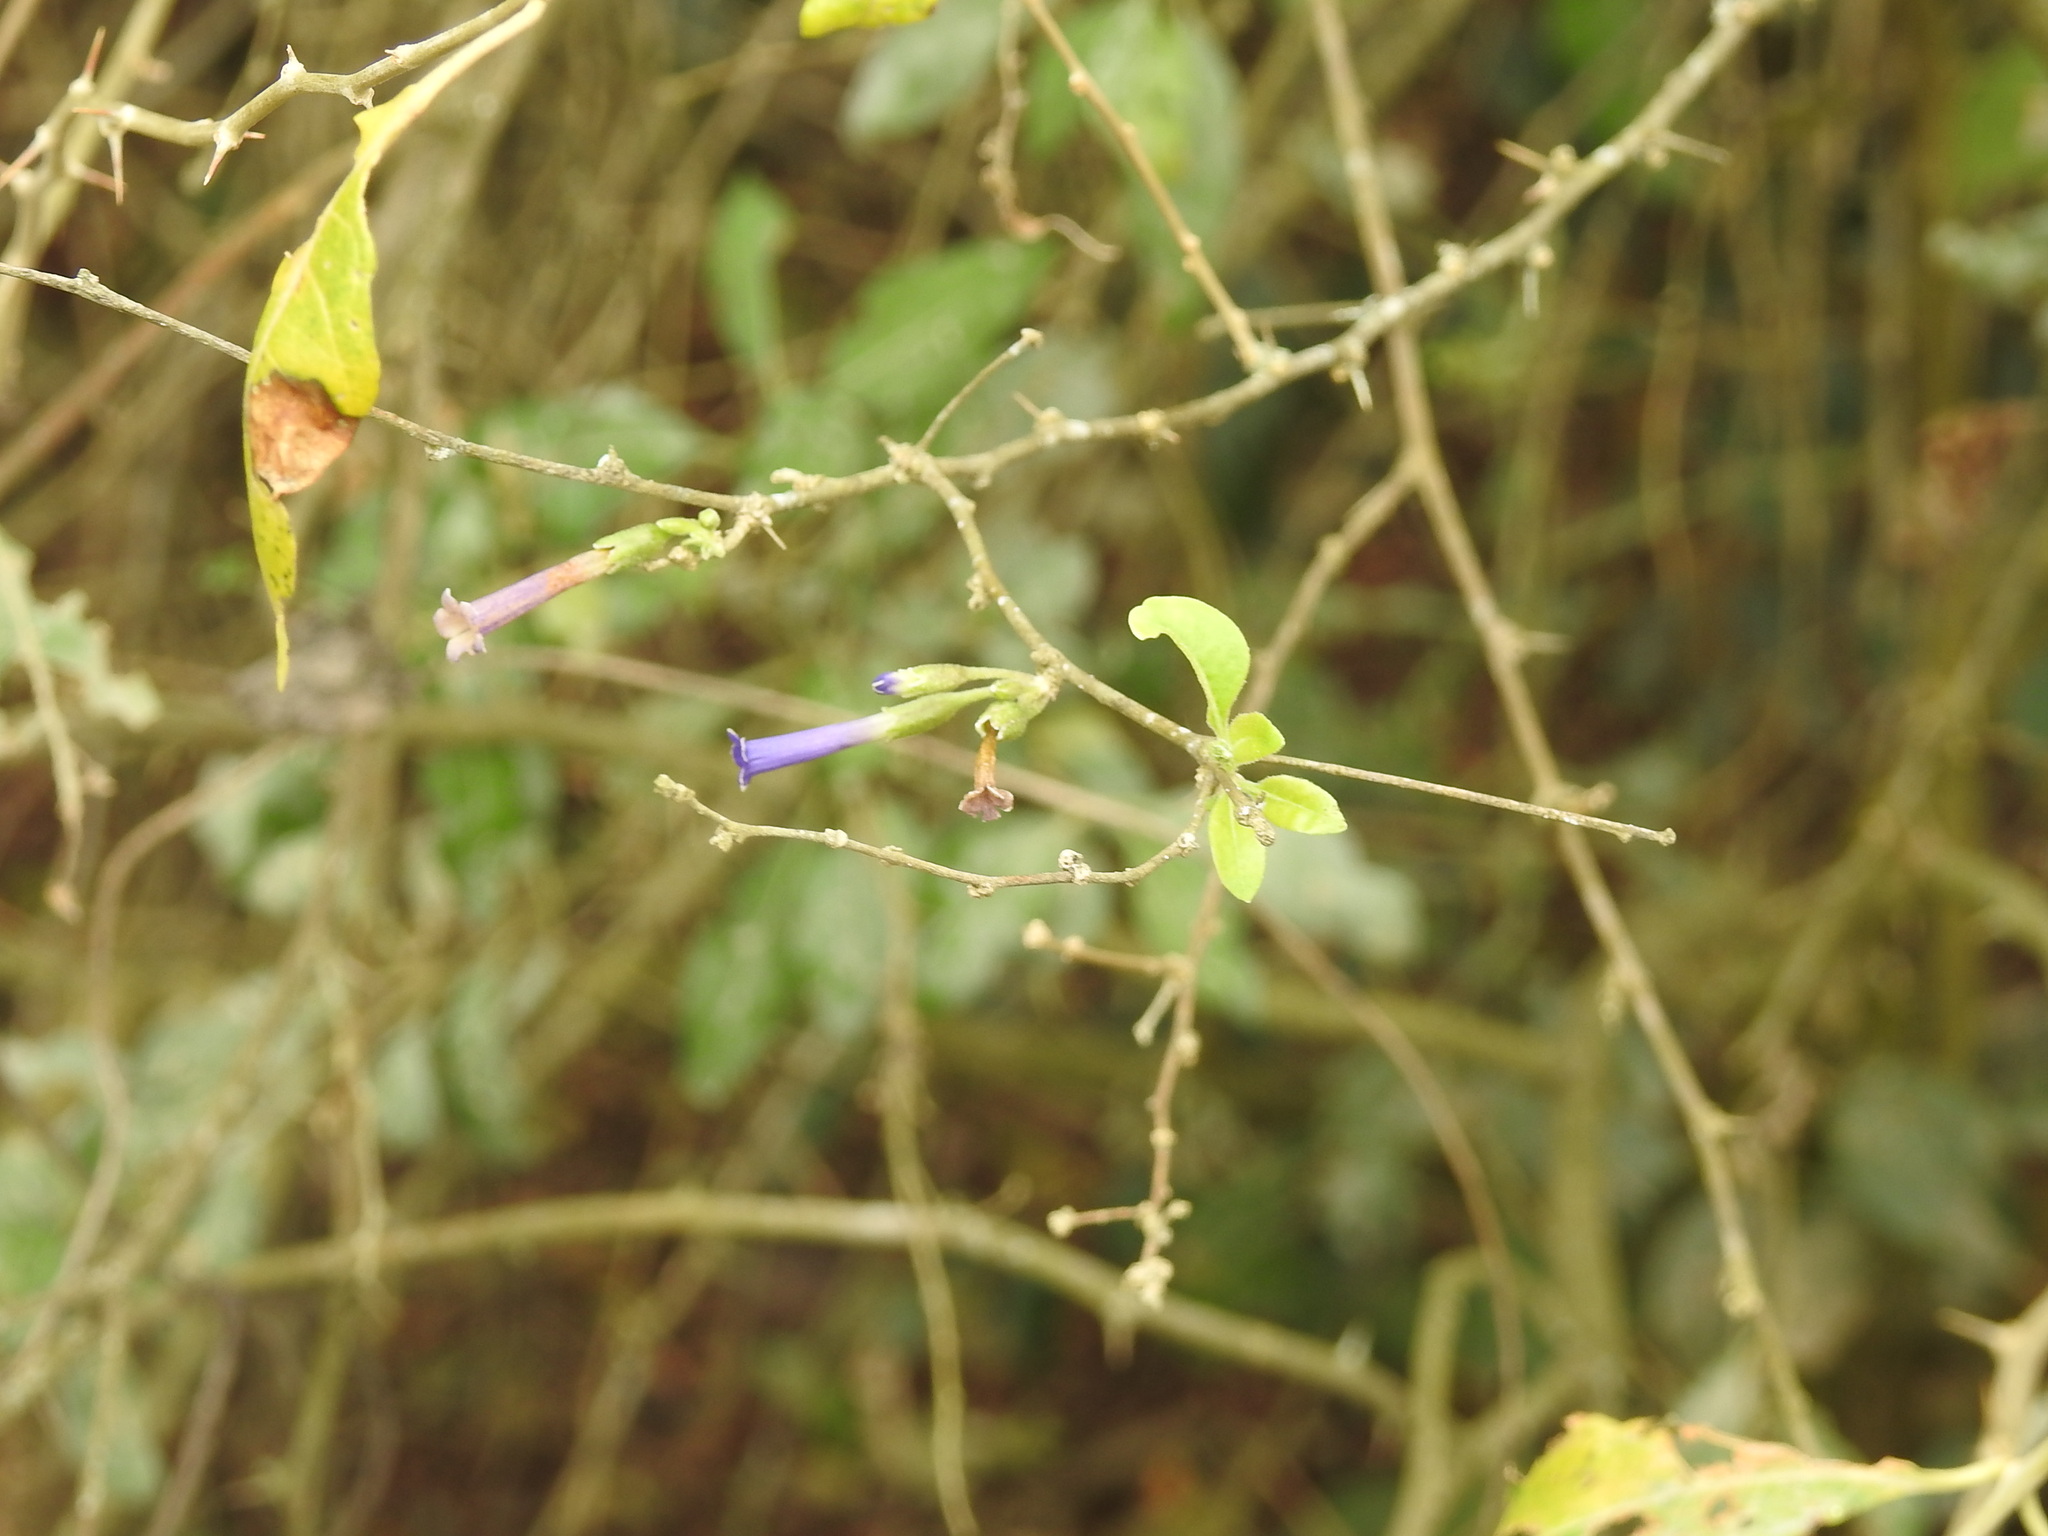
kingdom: Plantae
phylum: Tracheophyta
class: Magnoliopsida
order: Solanales
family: Solanaceae
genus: Lycium
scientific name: Lycium cestroides
